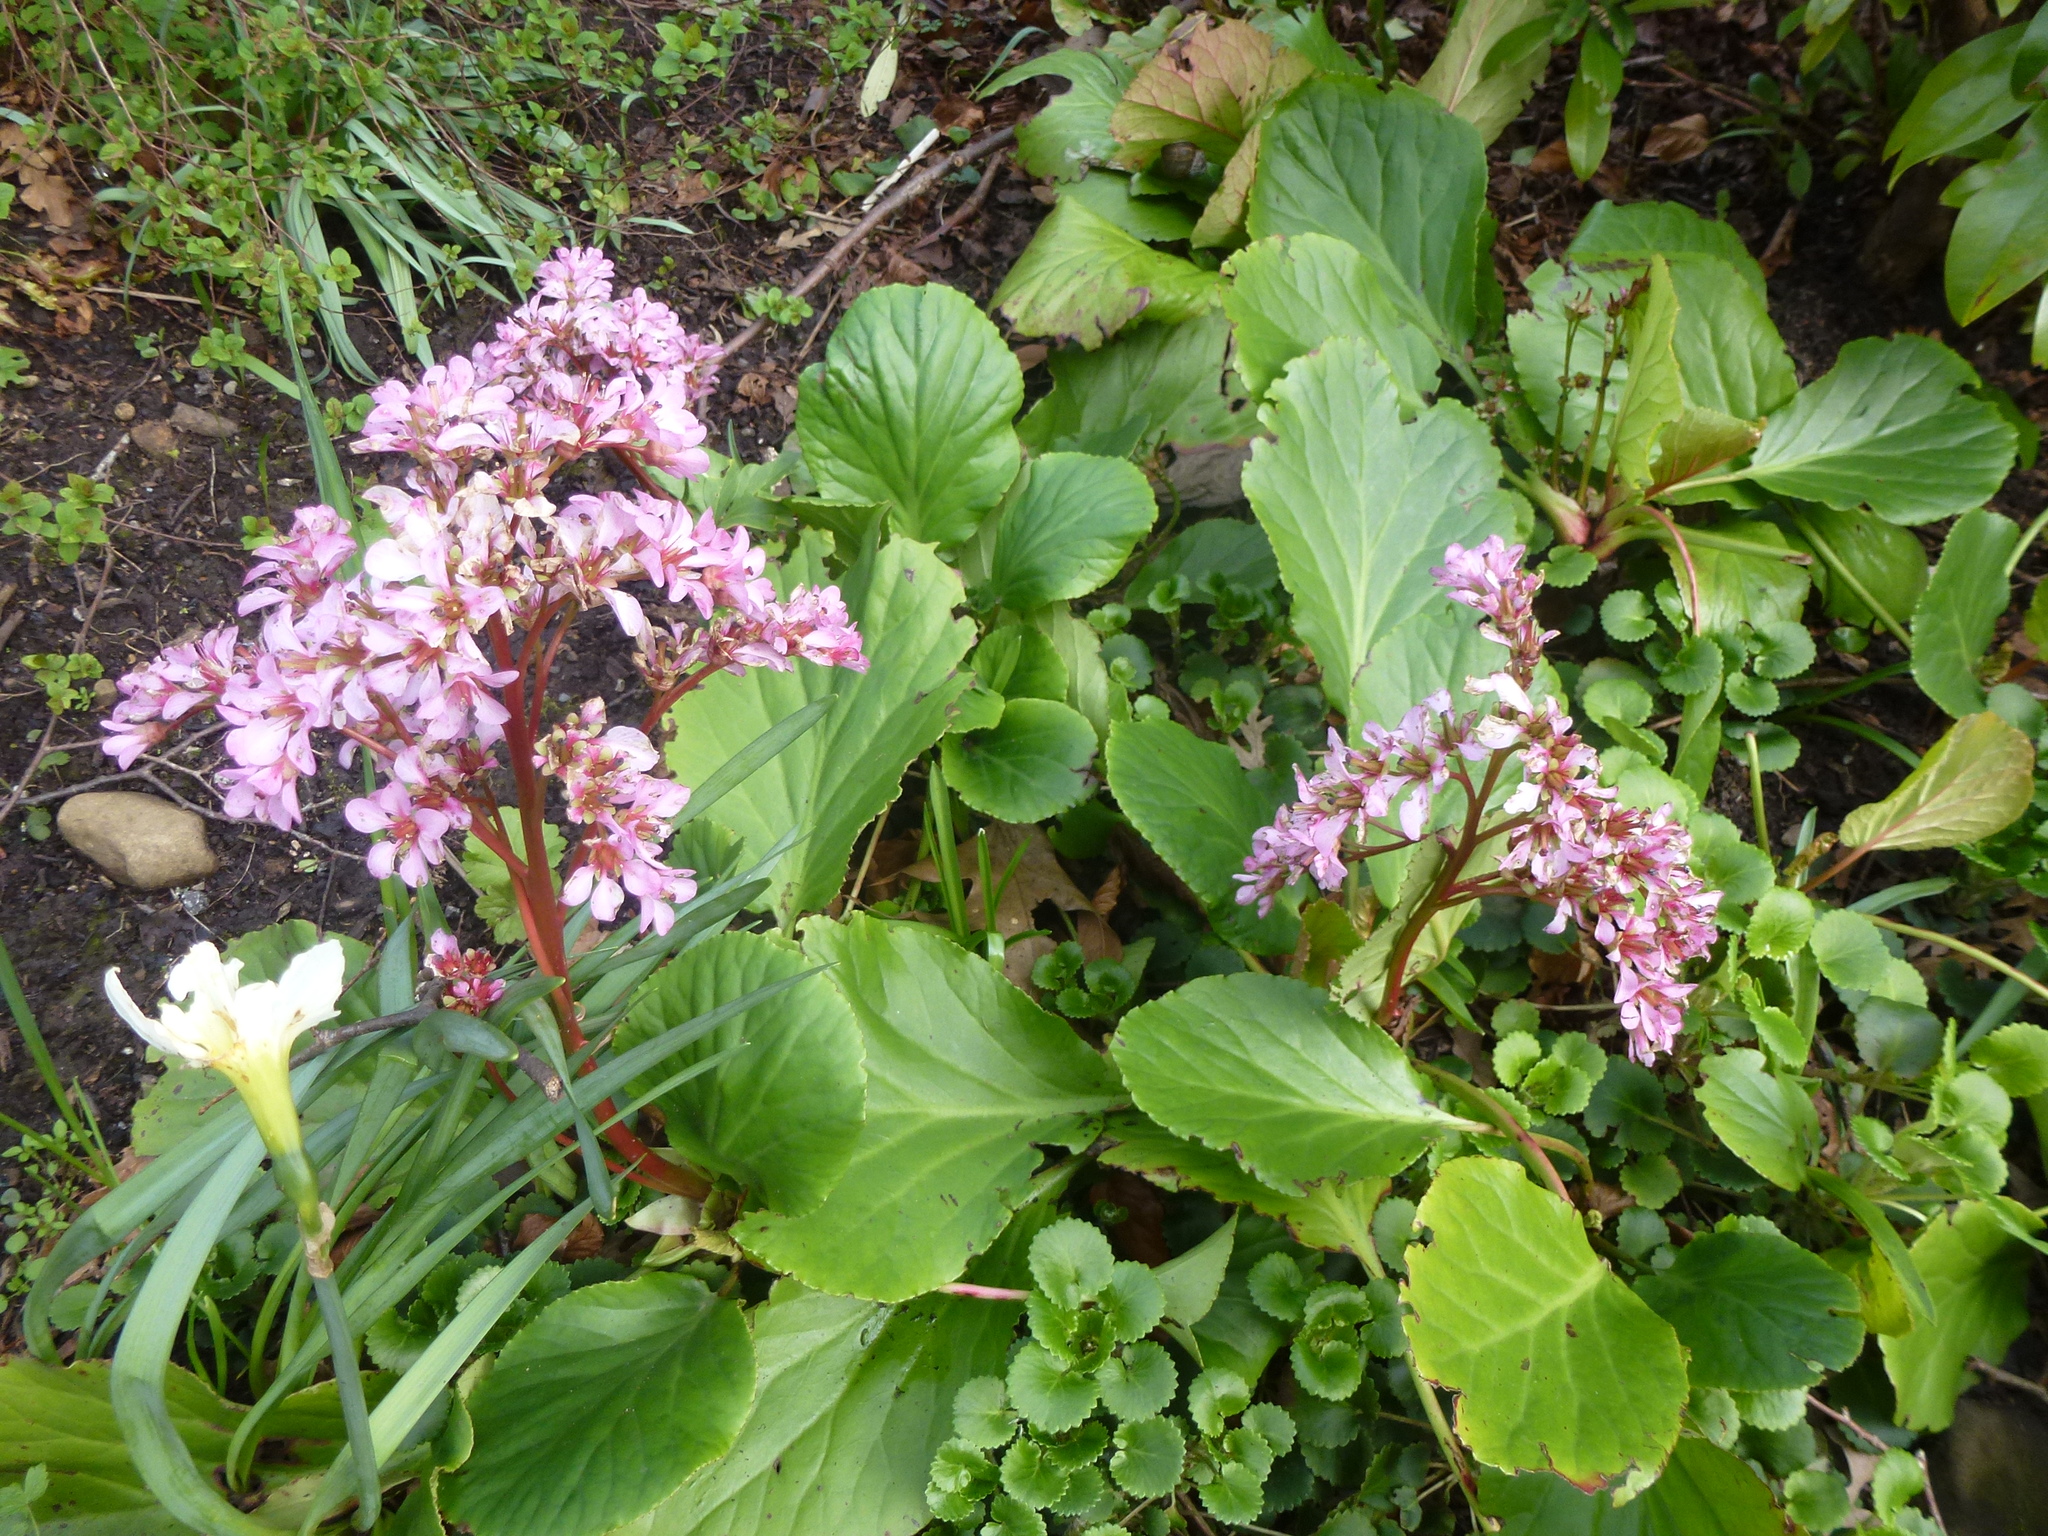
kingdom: Plantae
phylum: Tracheophyta
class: Magnoliopsida
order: Saxifragales
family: Saxifragaceae
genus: Bergenia
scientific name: Bergenia crassifolia
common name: Elephant-ears
